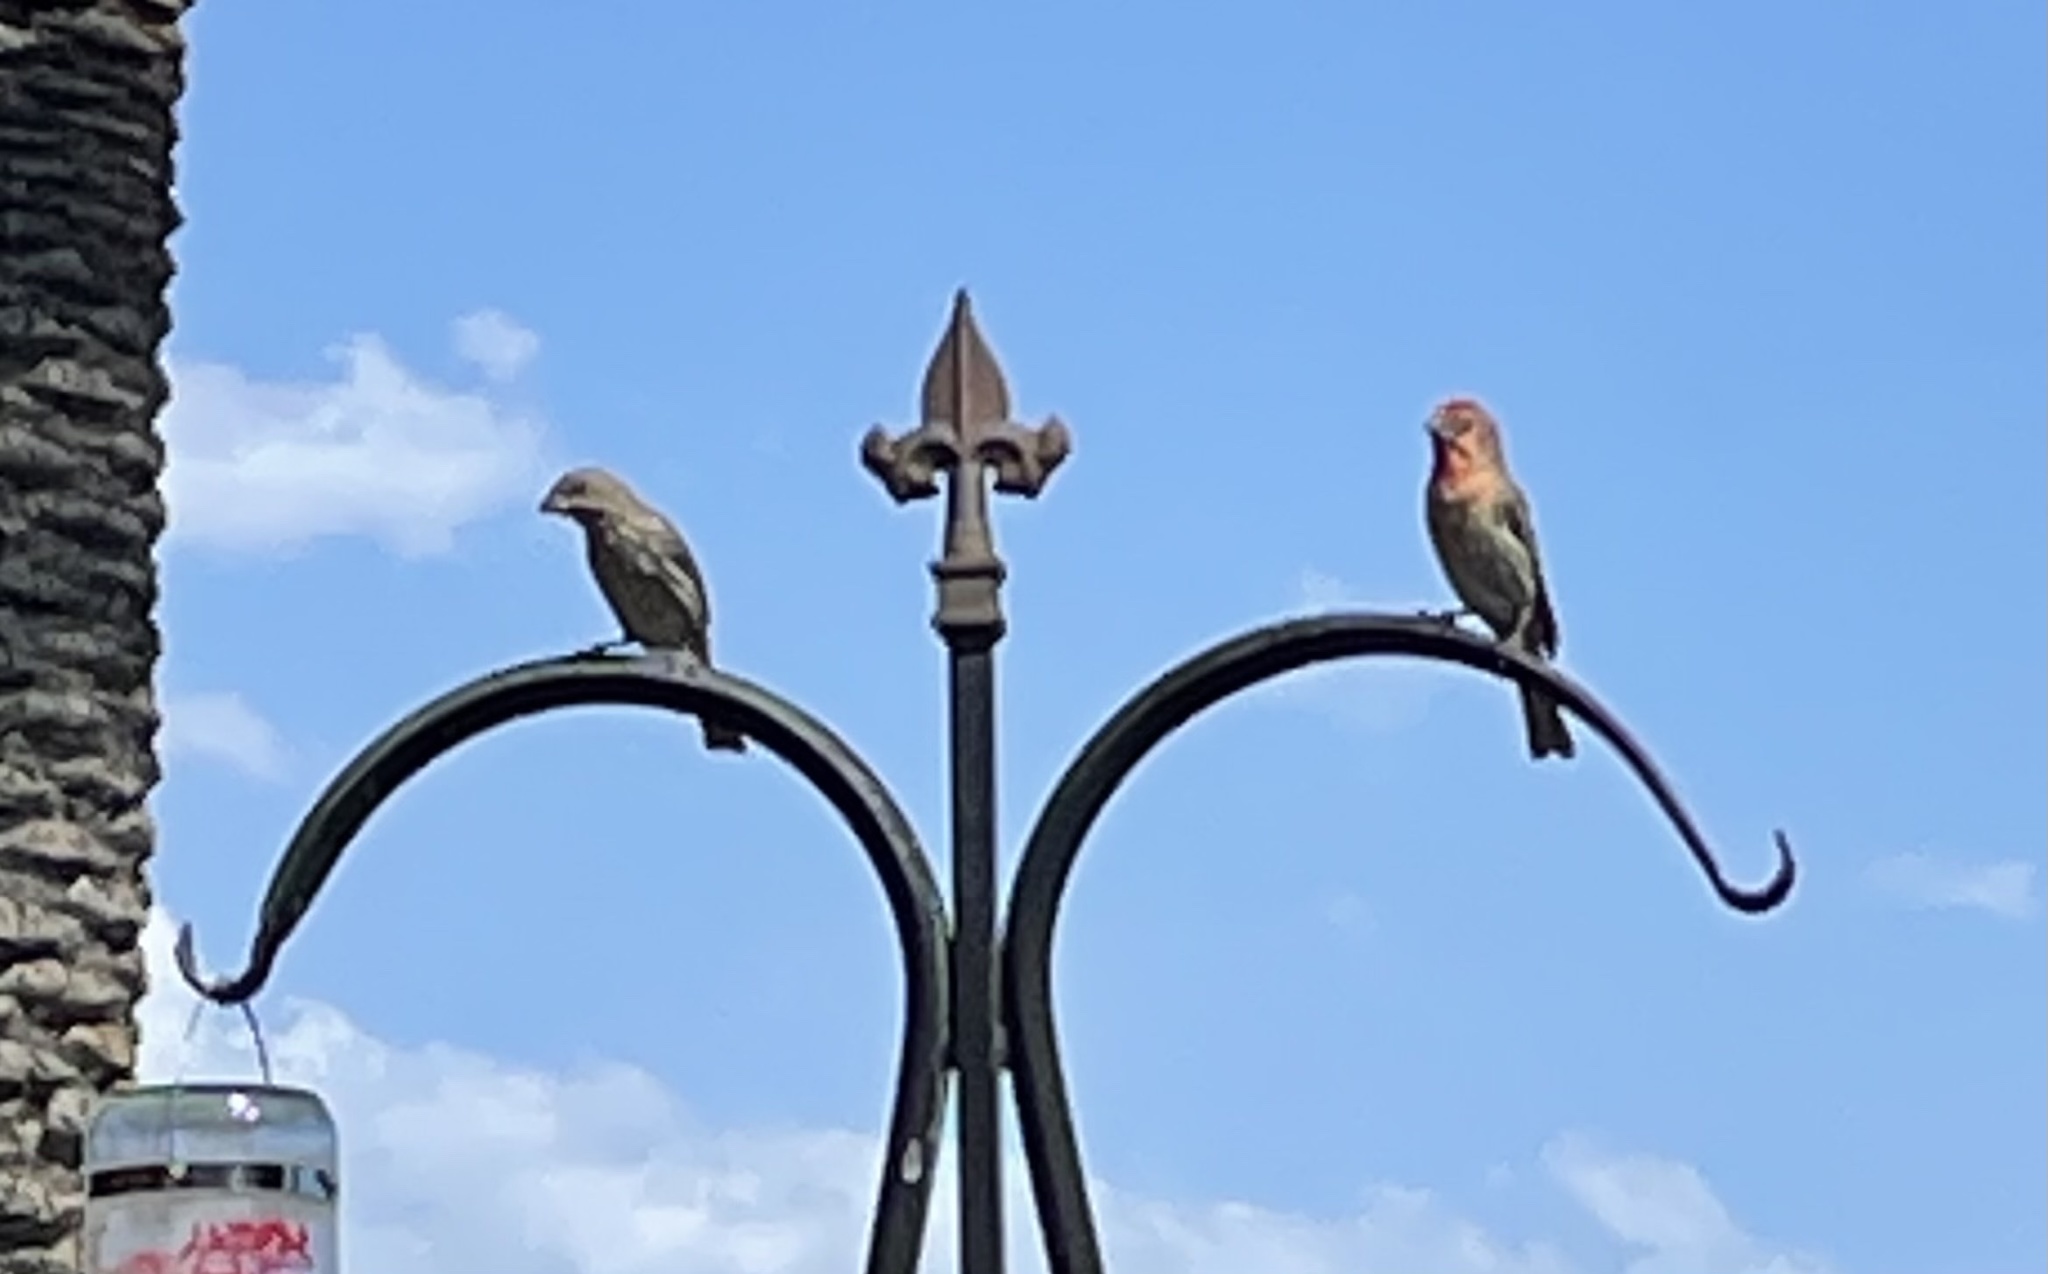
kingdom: Animalia
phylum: Chordata
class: Aves
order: Passeriformes
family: Fringillidae
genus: Haemorhous
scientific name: Haemorhous mexicanus
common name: House finch
